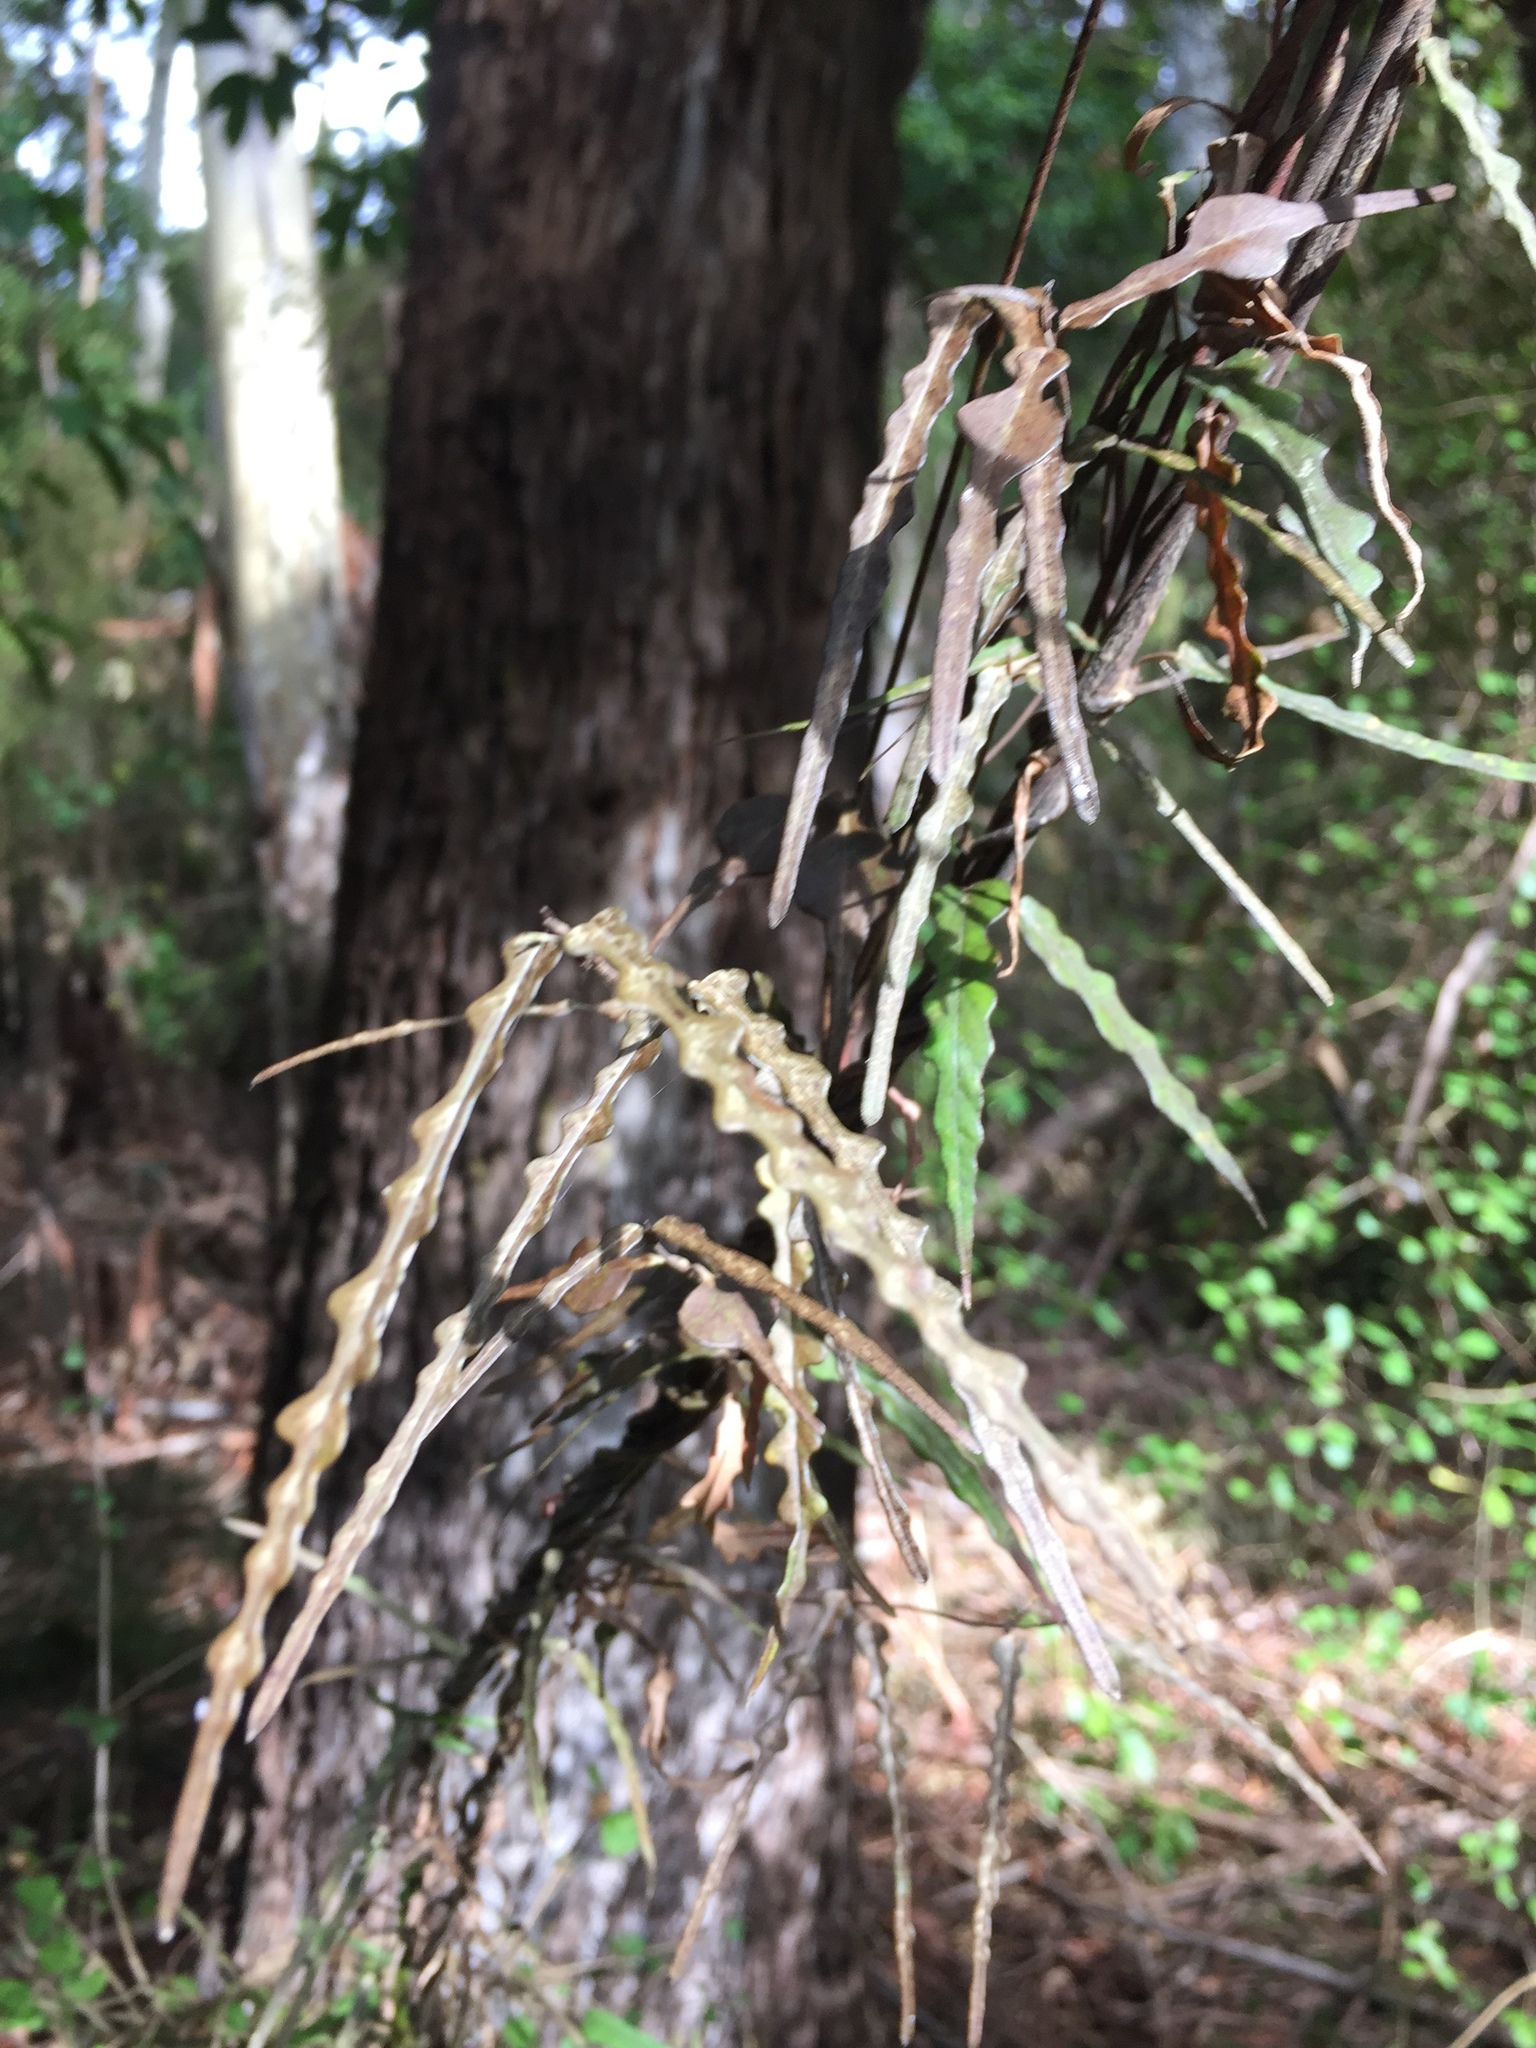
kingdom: Plantae
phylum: Tracheophyta
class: Magnoliopsida
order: Gentianales
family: Apocynaceae
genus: Parsonsia
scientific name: Parsonsia heterophylla
